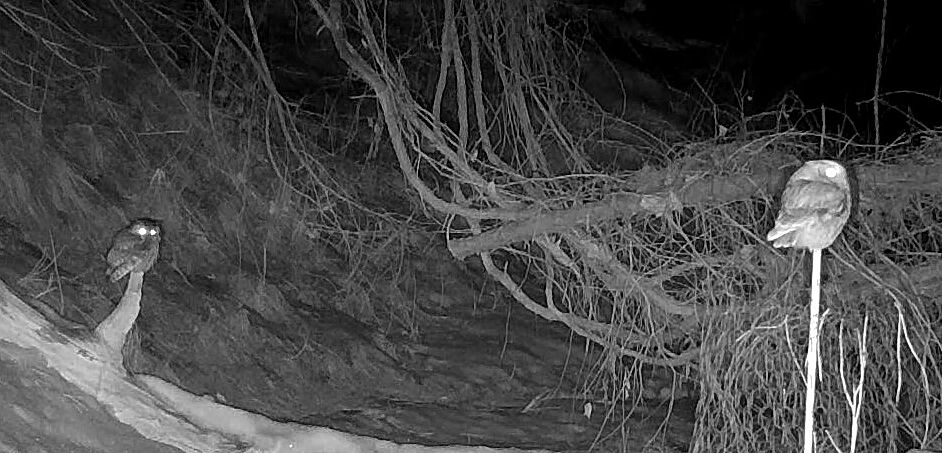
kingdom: Animalia
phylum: Chordata
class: Aves
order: Strigiformes
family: Strigidae
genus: Megascops
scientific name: Megascops asio
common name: Eastern screech-owl
